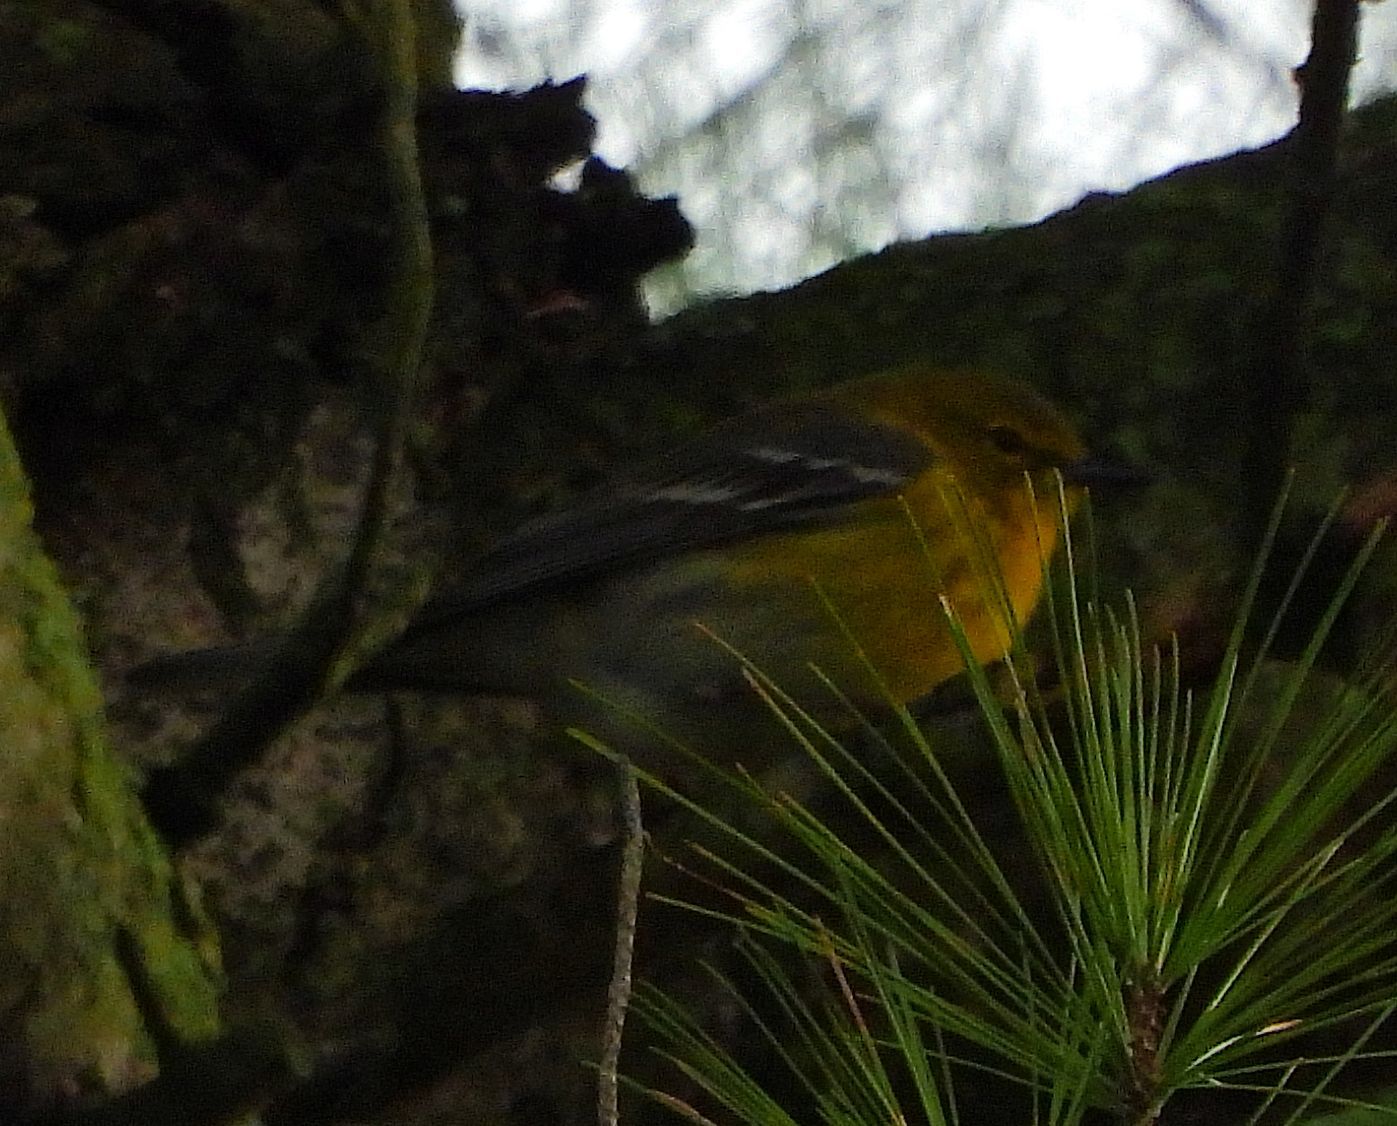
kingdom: Animalia
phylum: Chordata
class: Aves
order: Passeriformes
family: Parulidae
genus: Setophaga
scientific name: Setophaga pinus
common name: Pine warbler
